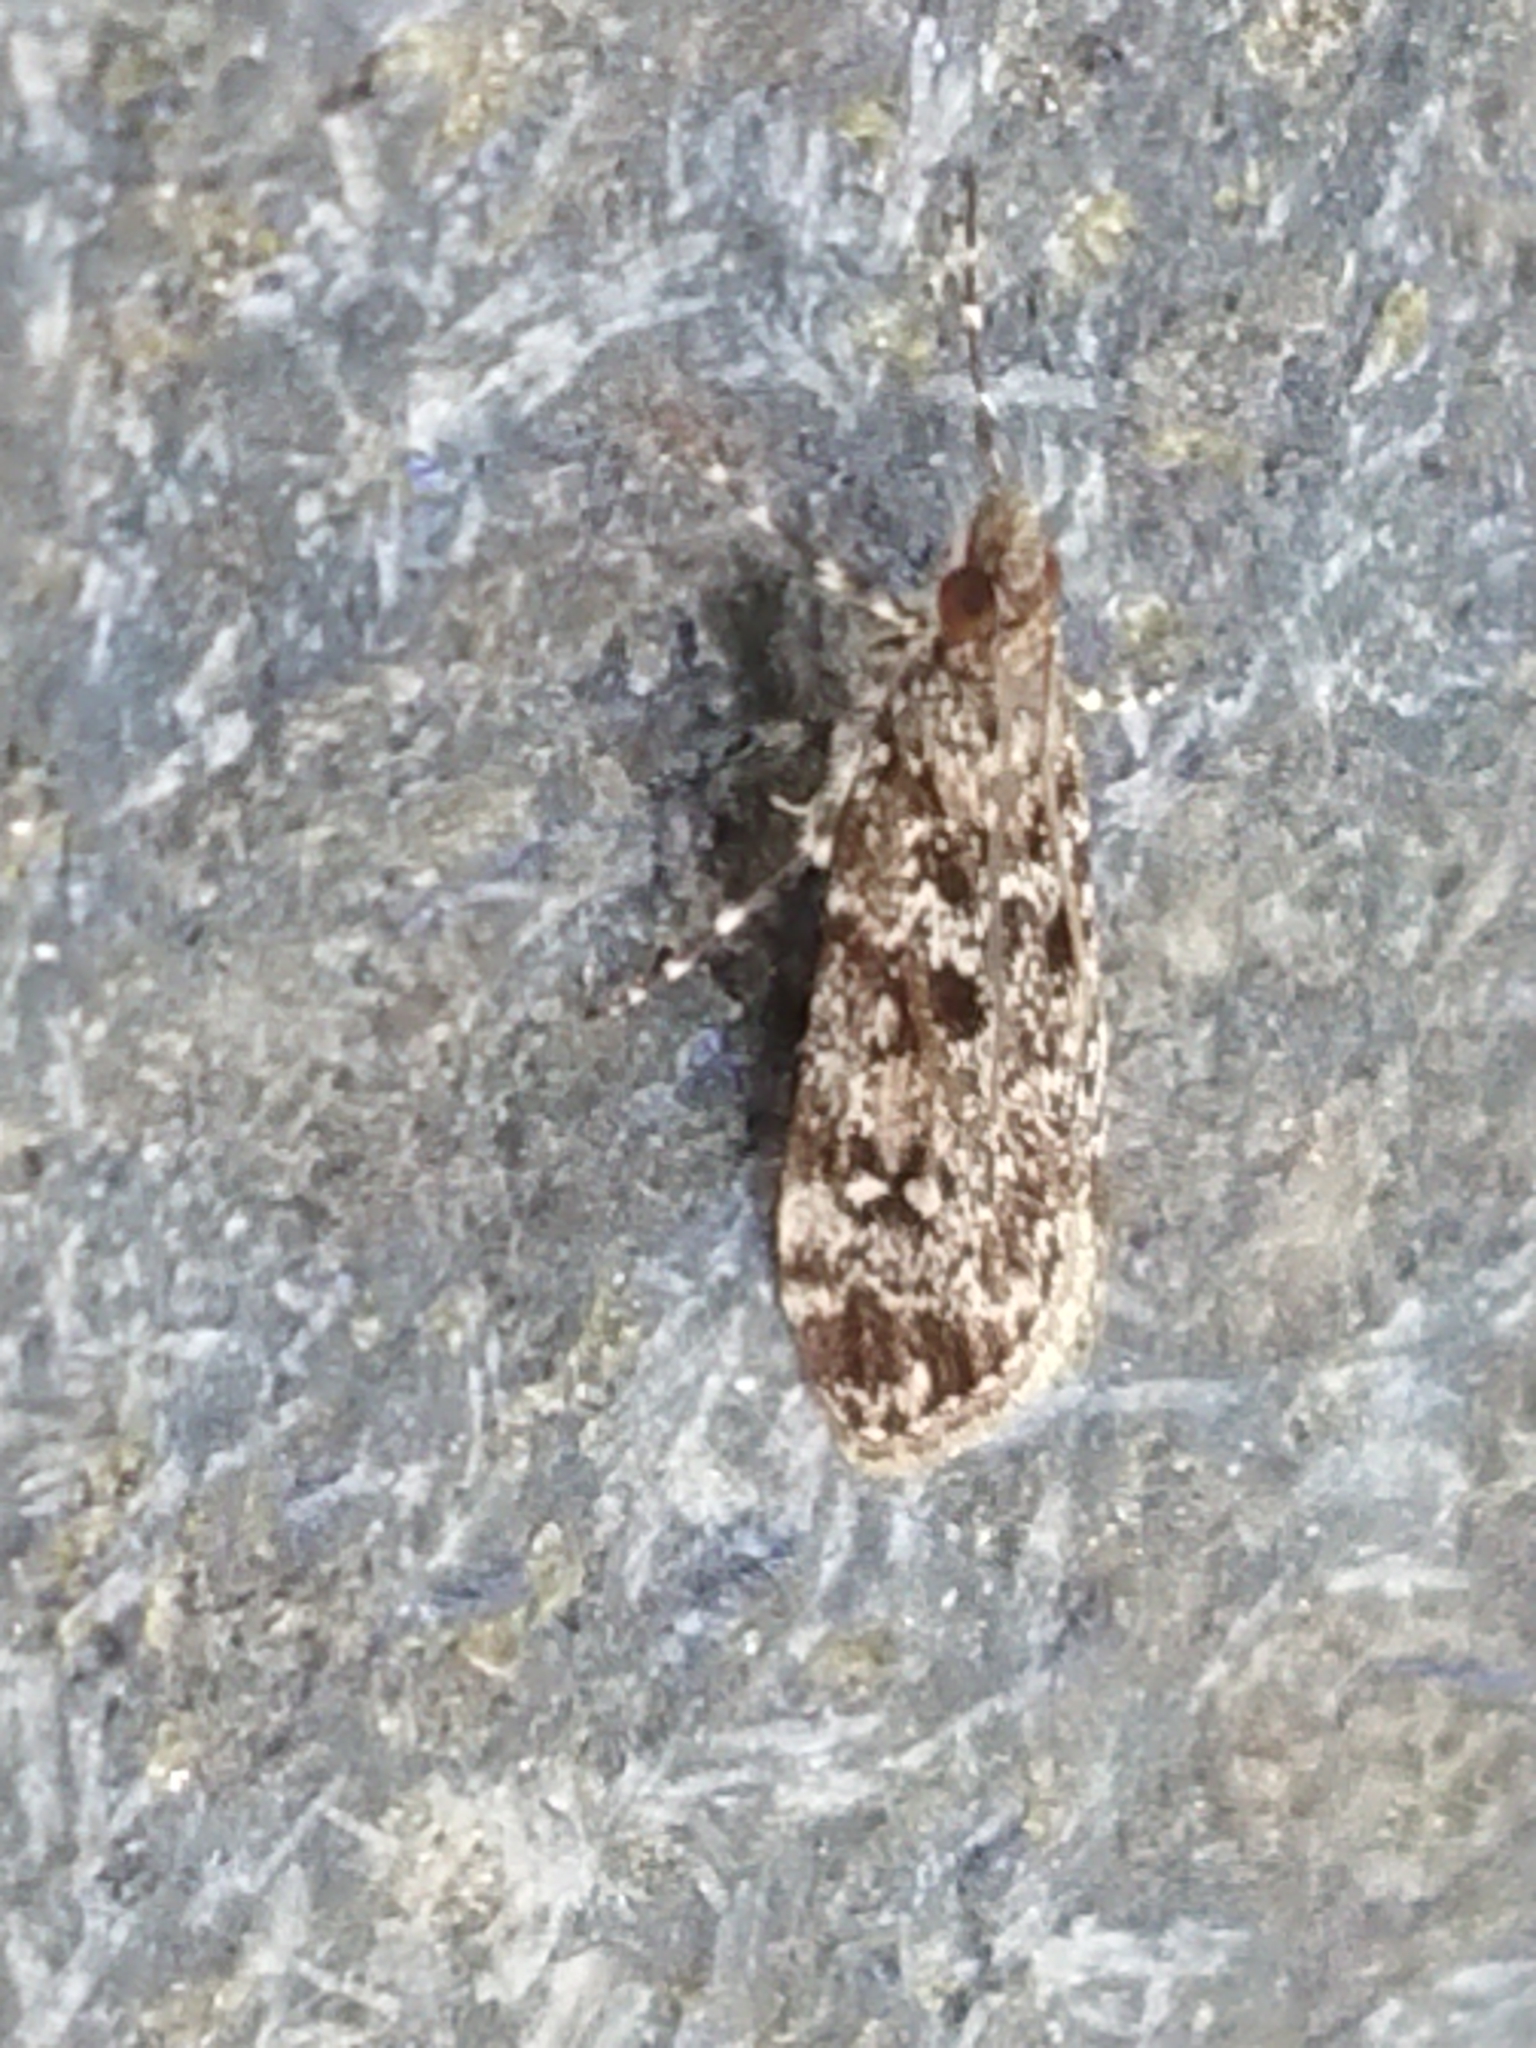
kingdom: Animalia
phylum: Arthropoda
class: Insecta
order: Lepidoptera
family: Crambidae
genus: Eudonia
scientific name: Eudonia philerga
